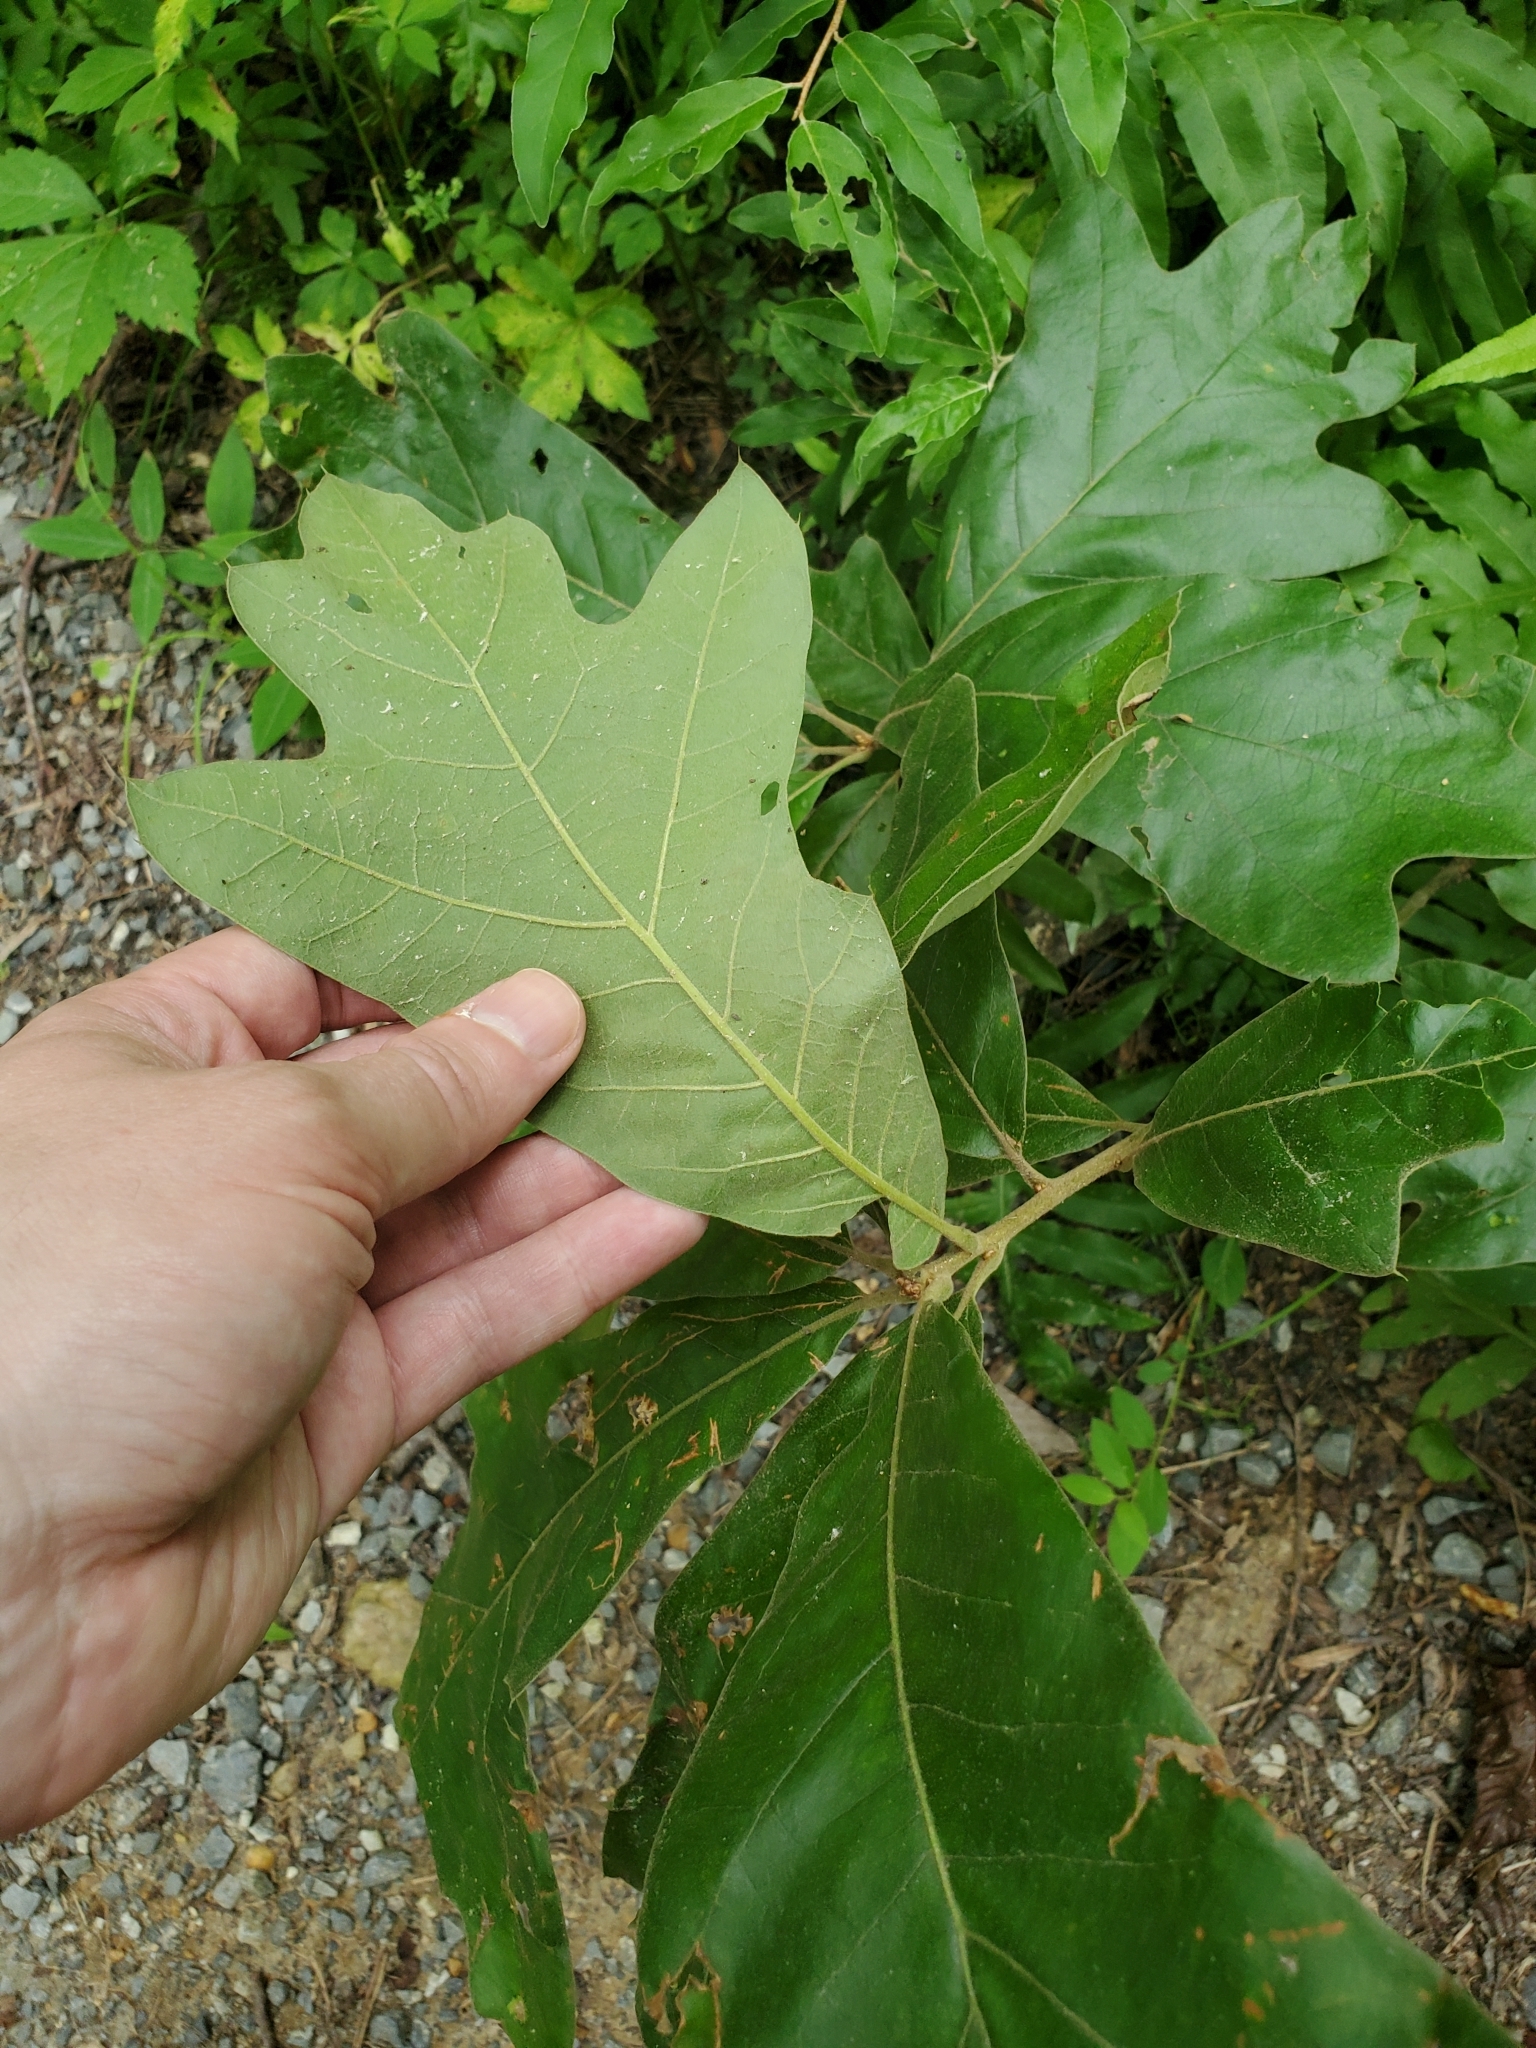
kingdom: Plantae
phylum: Tracheophyta
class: Magnoliopsida
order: Fagales
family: Fagaceae
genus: Quercus
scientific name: Quercus falcata
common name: Southern red oak
